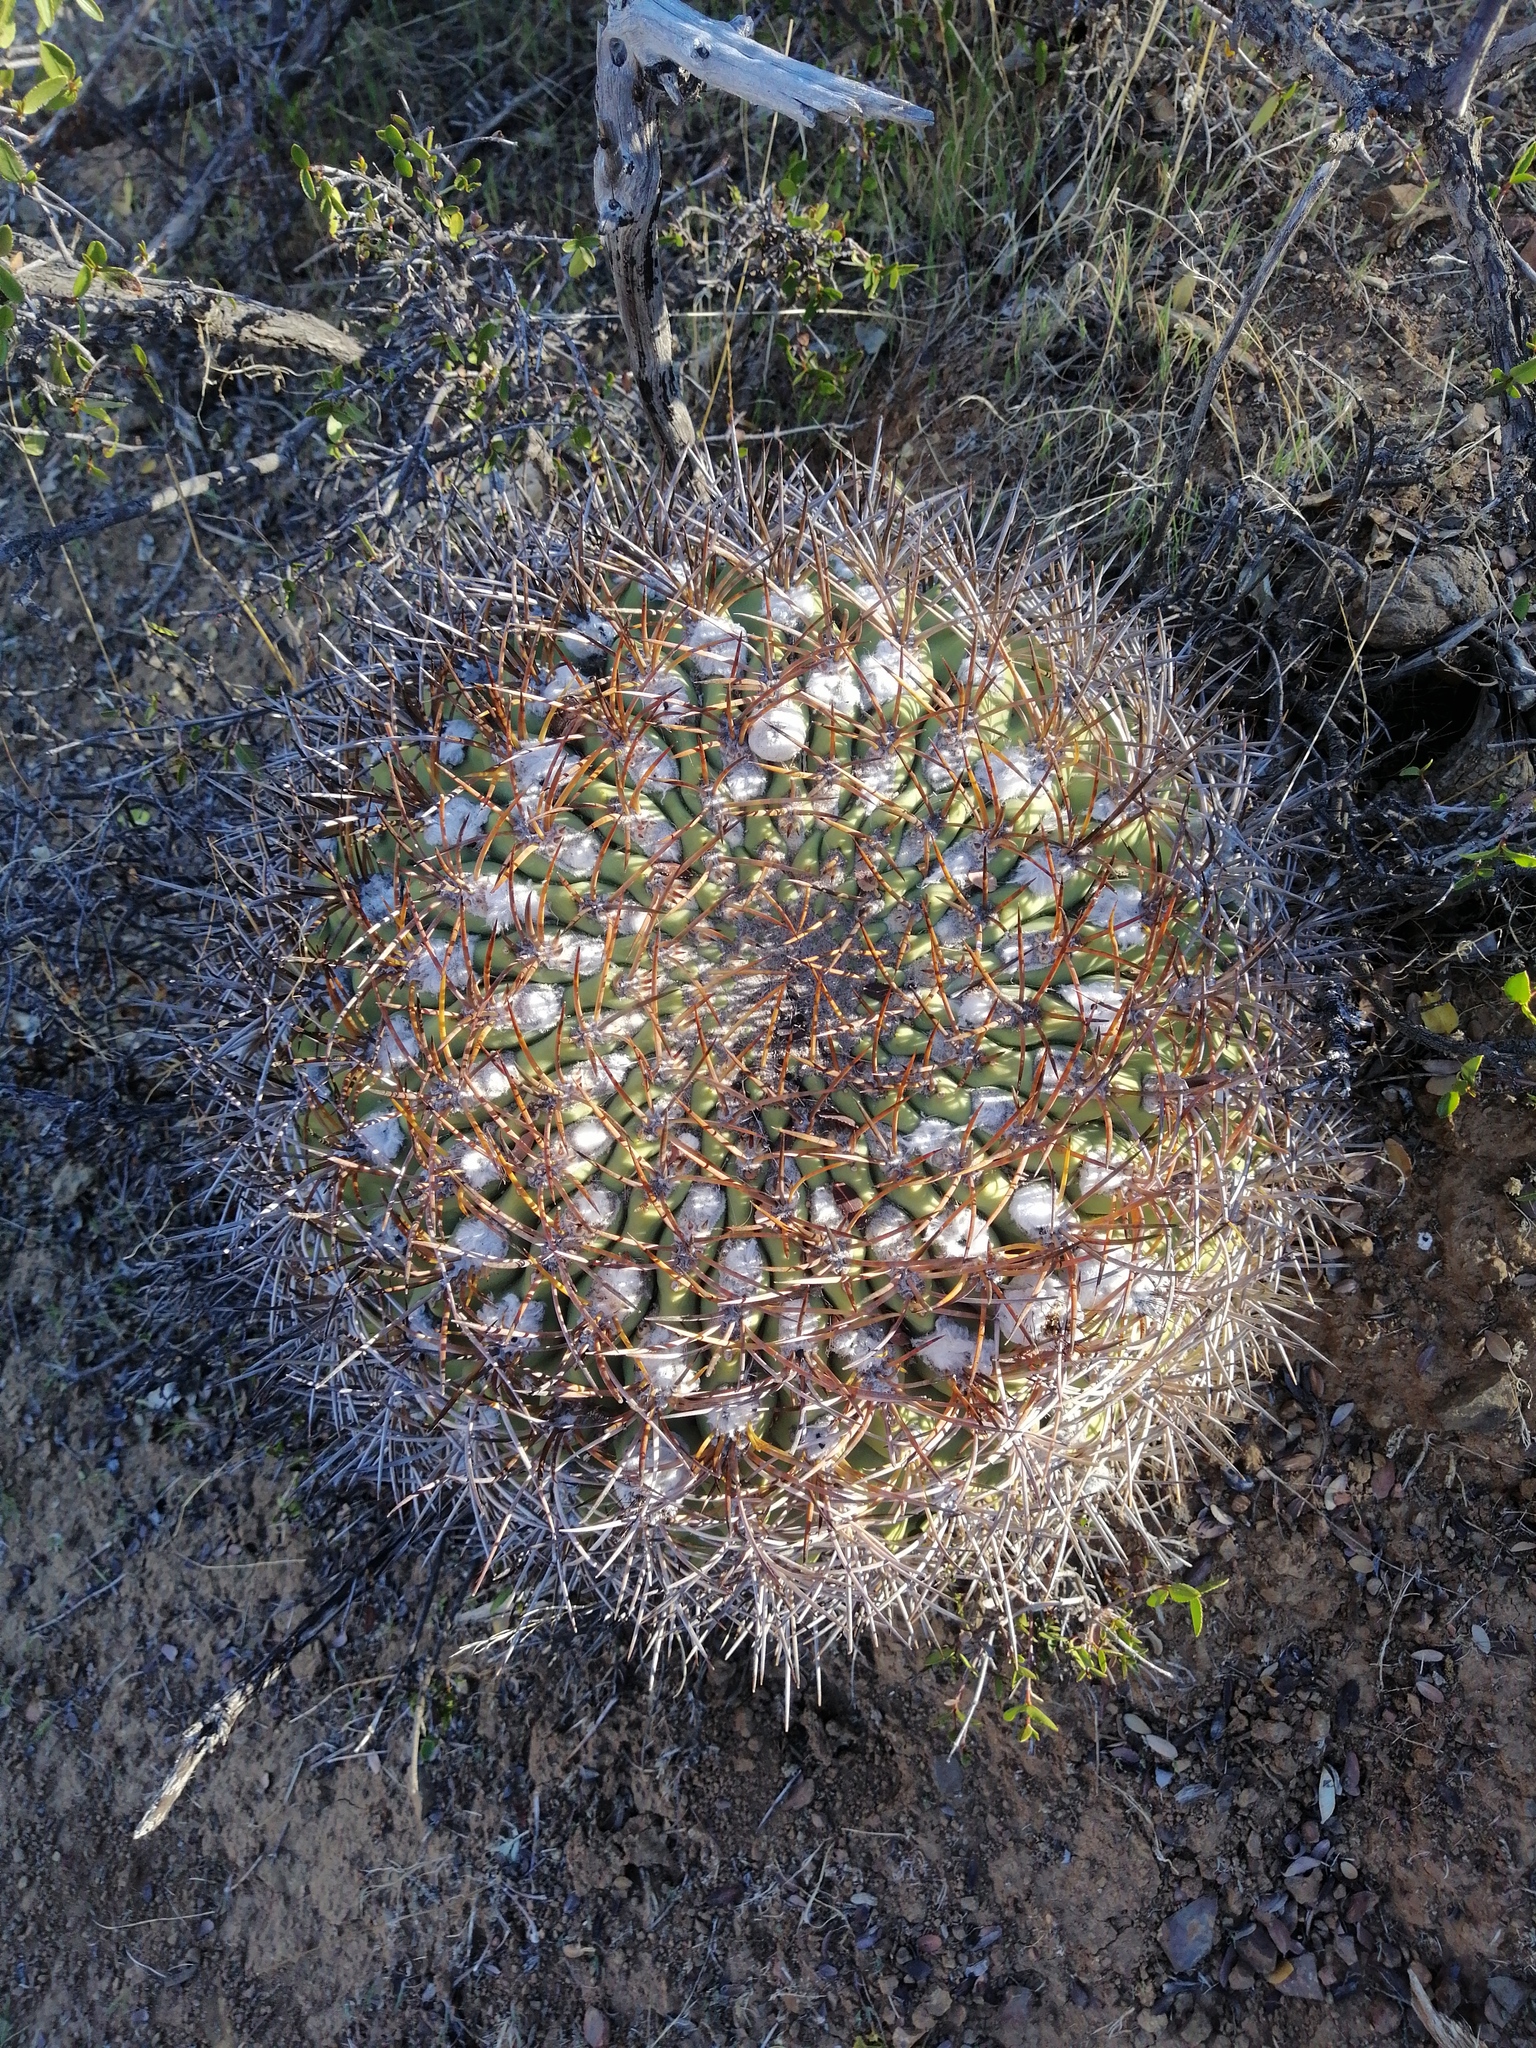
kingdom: Plantae
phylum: Tracheophyta
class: Magnoliopsida
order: Caryophyllales
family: Cactaceae
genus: Eriosyce
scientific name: Eriosyce aurata
